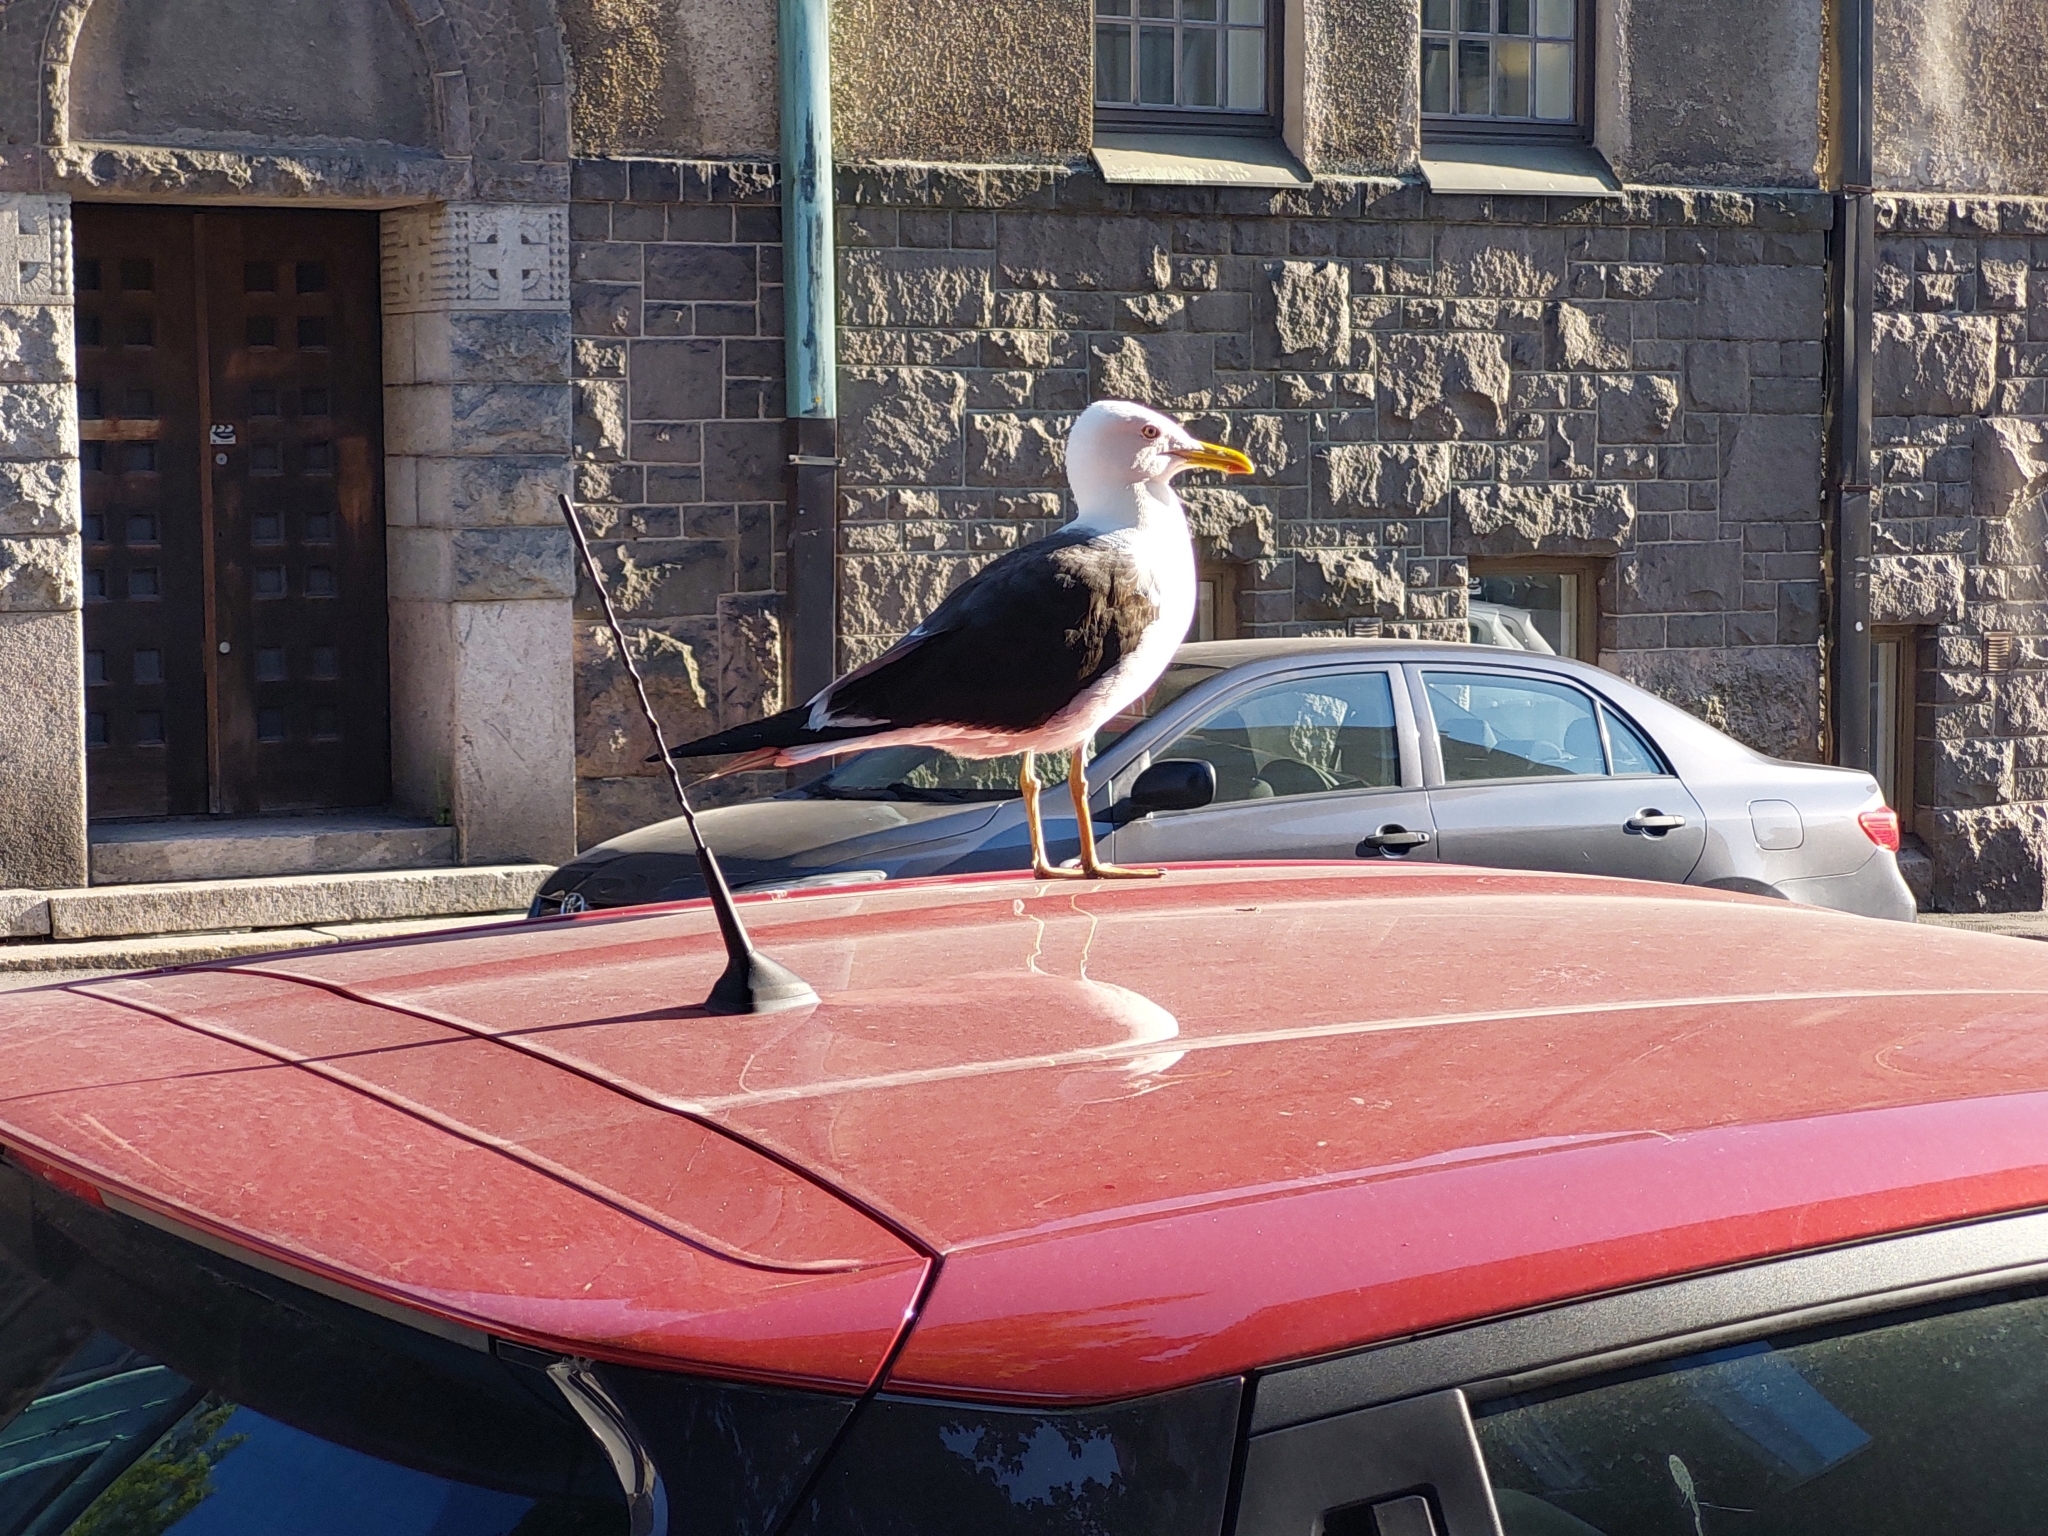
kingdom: Animalia
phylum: Chordata
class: Aves
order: Charadriiformes
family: Laridae
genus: Larus
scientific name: Larus fuscus
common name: Lesser black-backed gull
